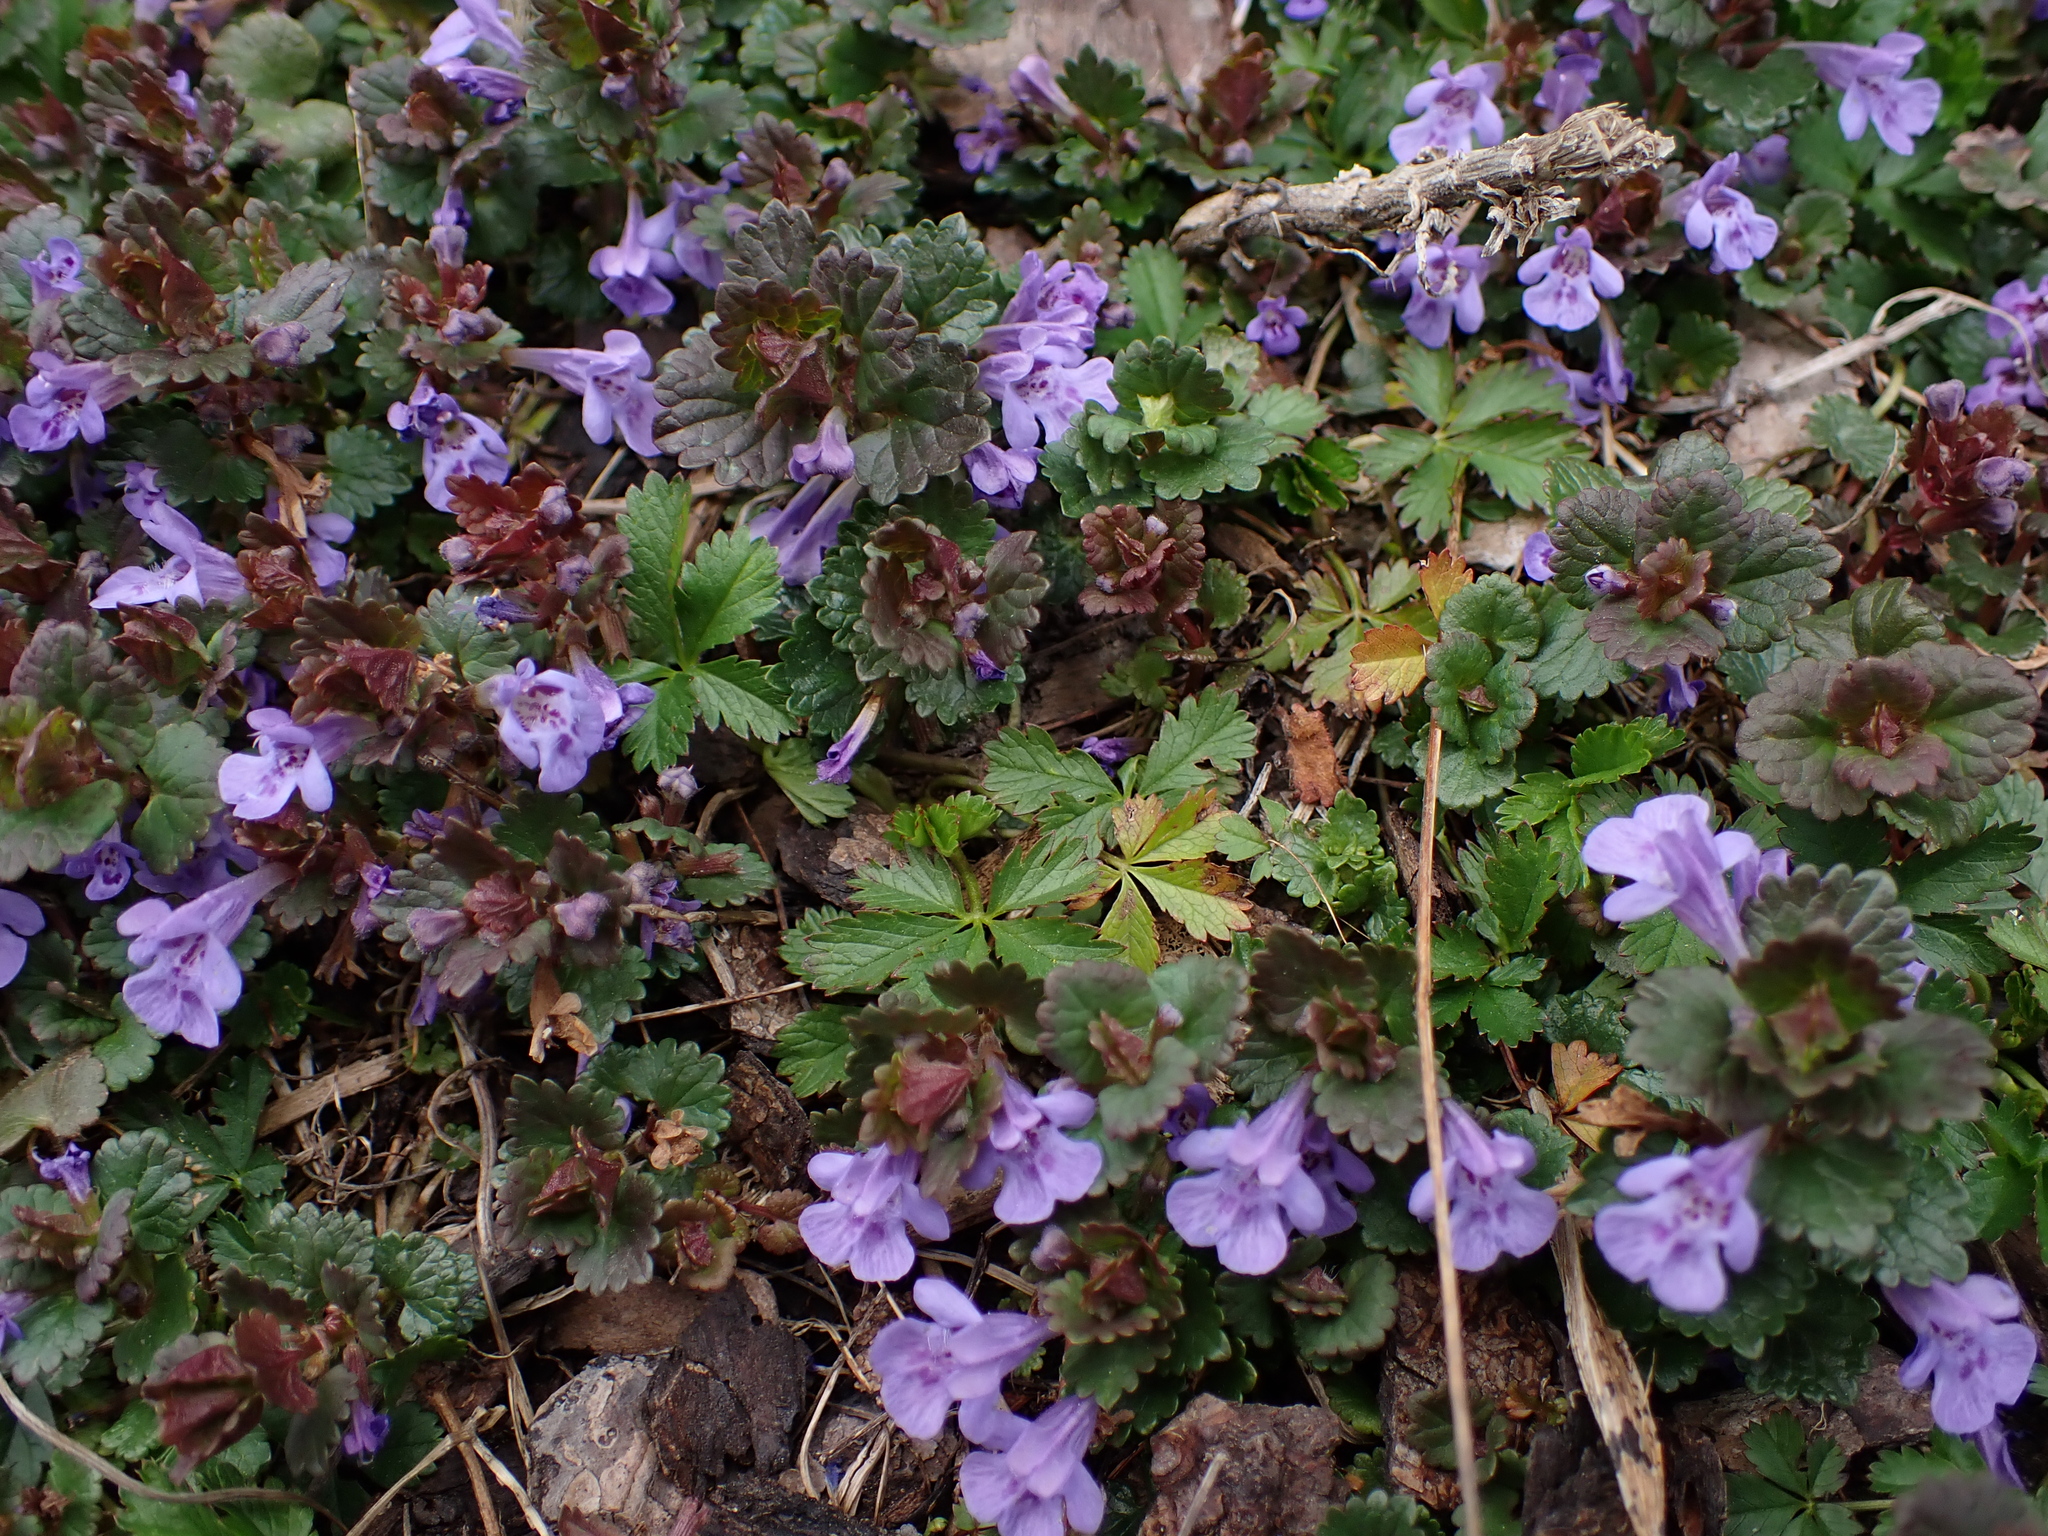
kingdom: Plantae
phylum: Tracheophyta
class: Magnoliopsida
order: Lamiales
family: Lamiaceae
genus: Glechoma
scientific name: Glechoma hederacea
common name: Ground ivy
